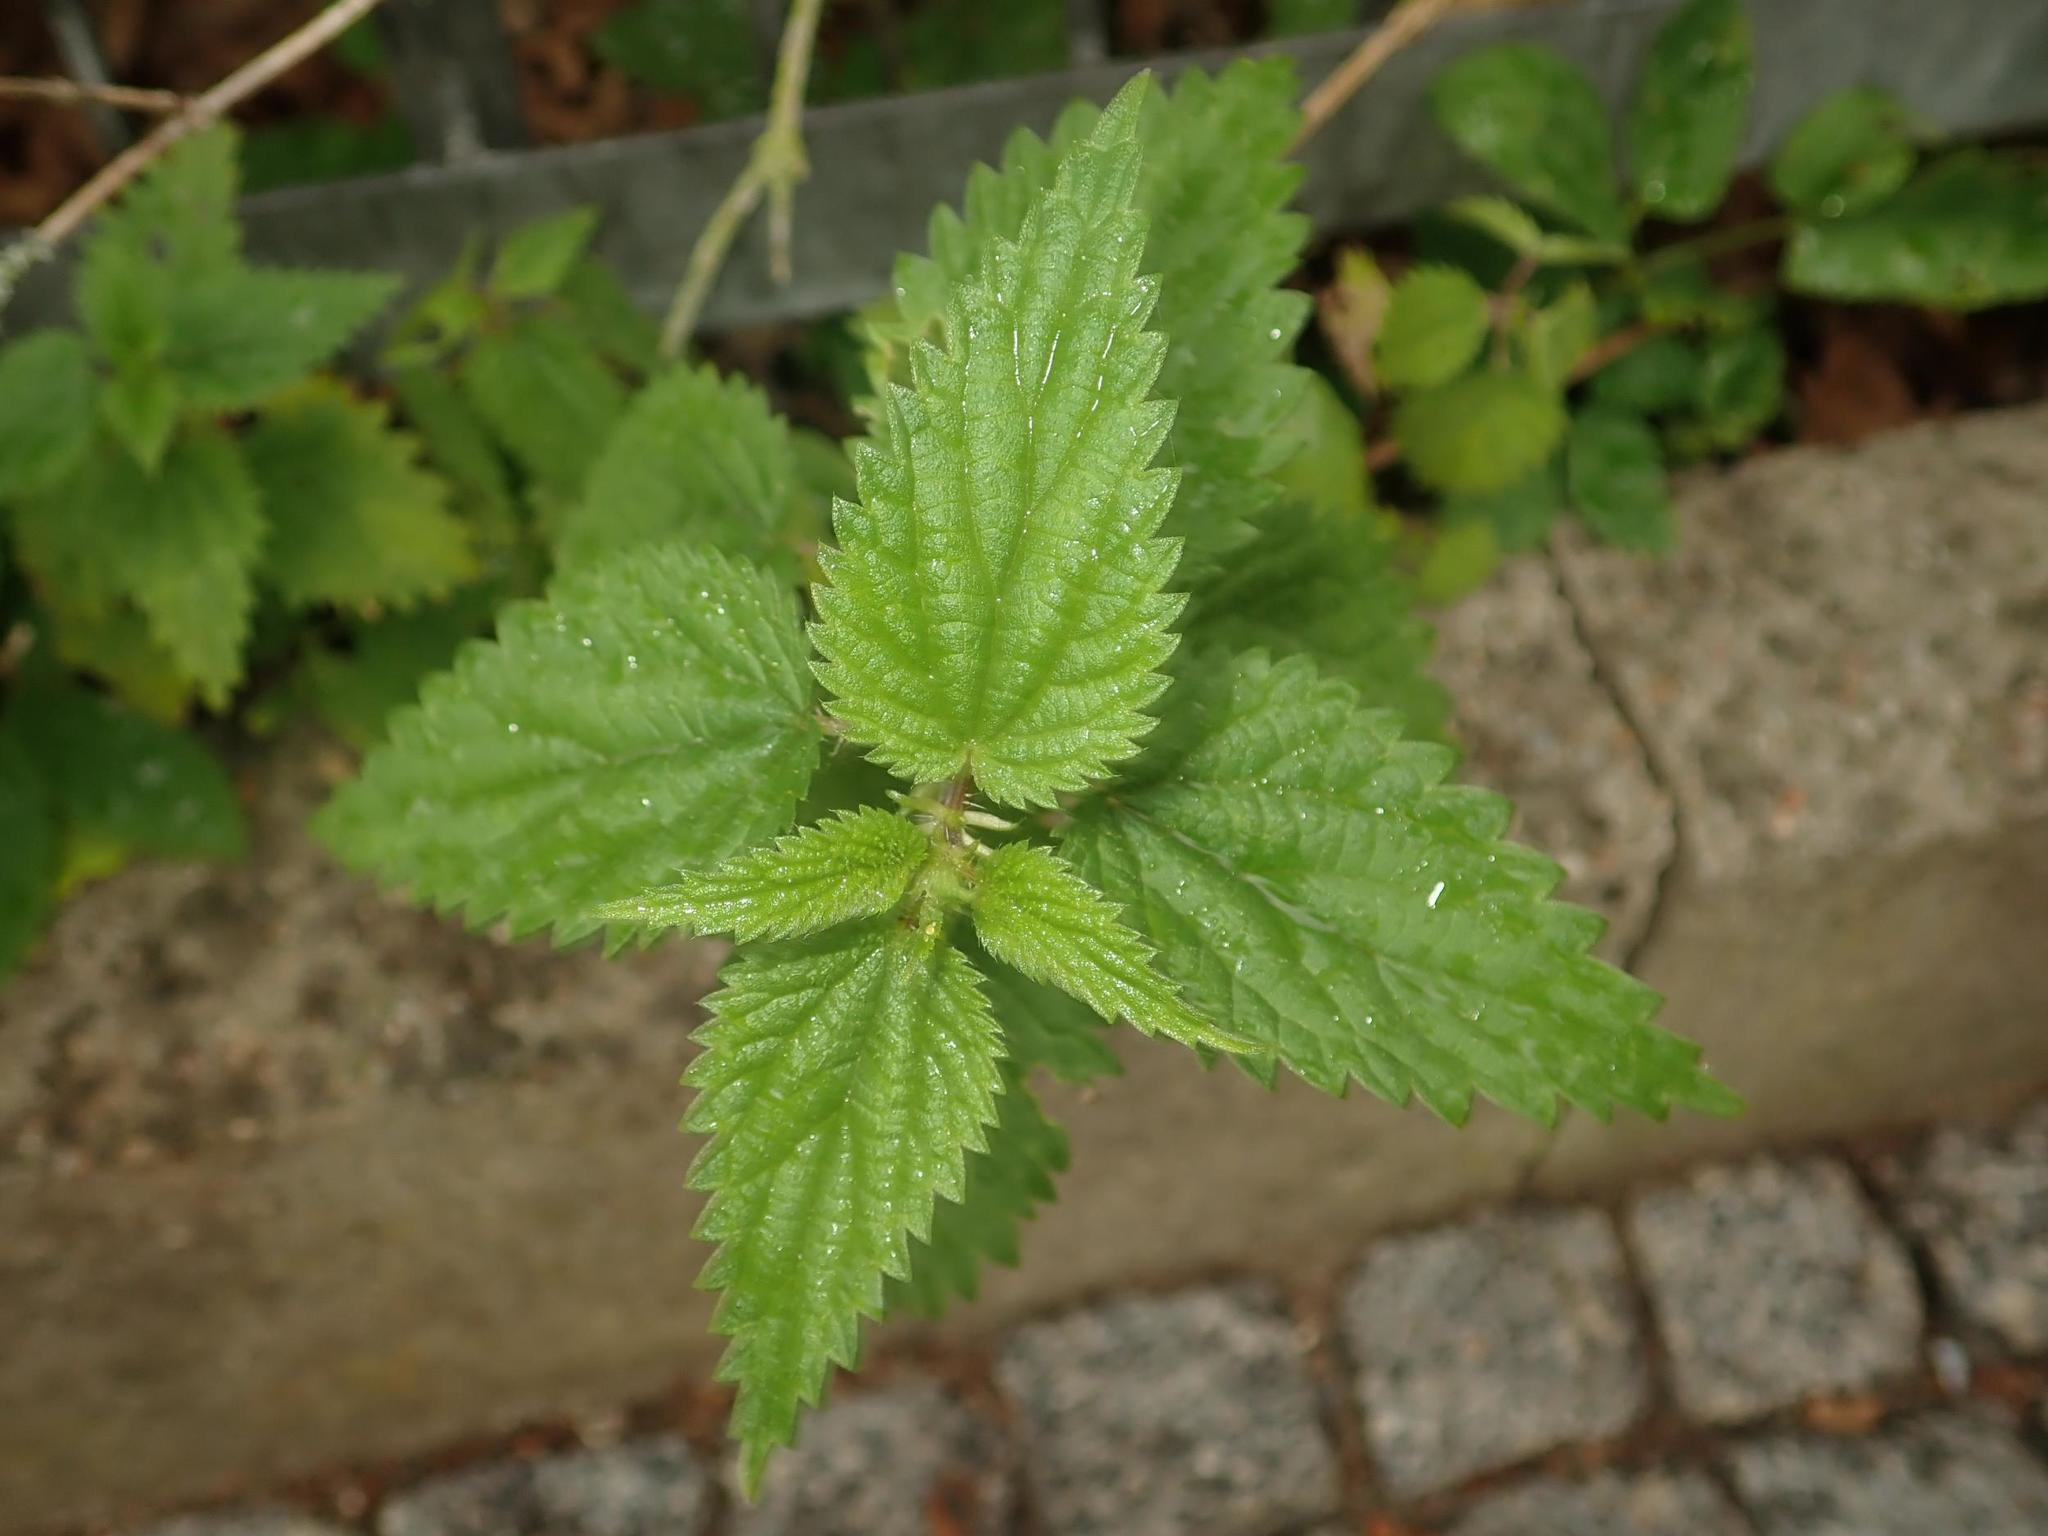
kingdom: Plantae
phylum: Tracheophyta
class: Magnoliopsida
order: Rosales
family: Urticaceae
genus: Urtica
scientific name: Urtica dioica
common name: Common nettle
